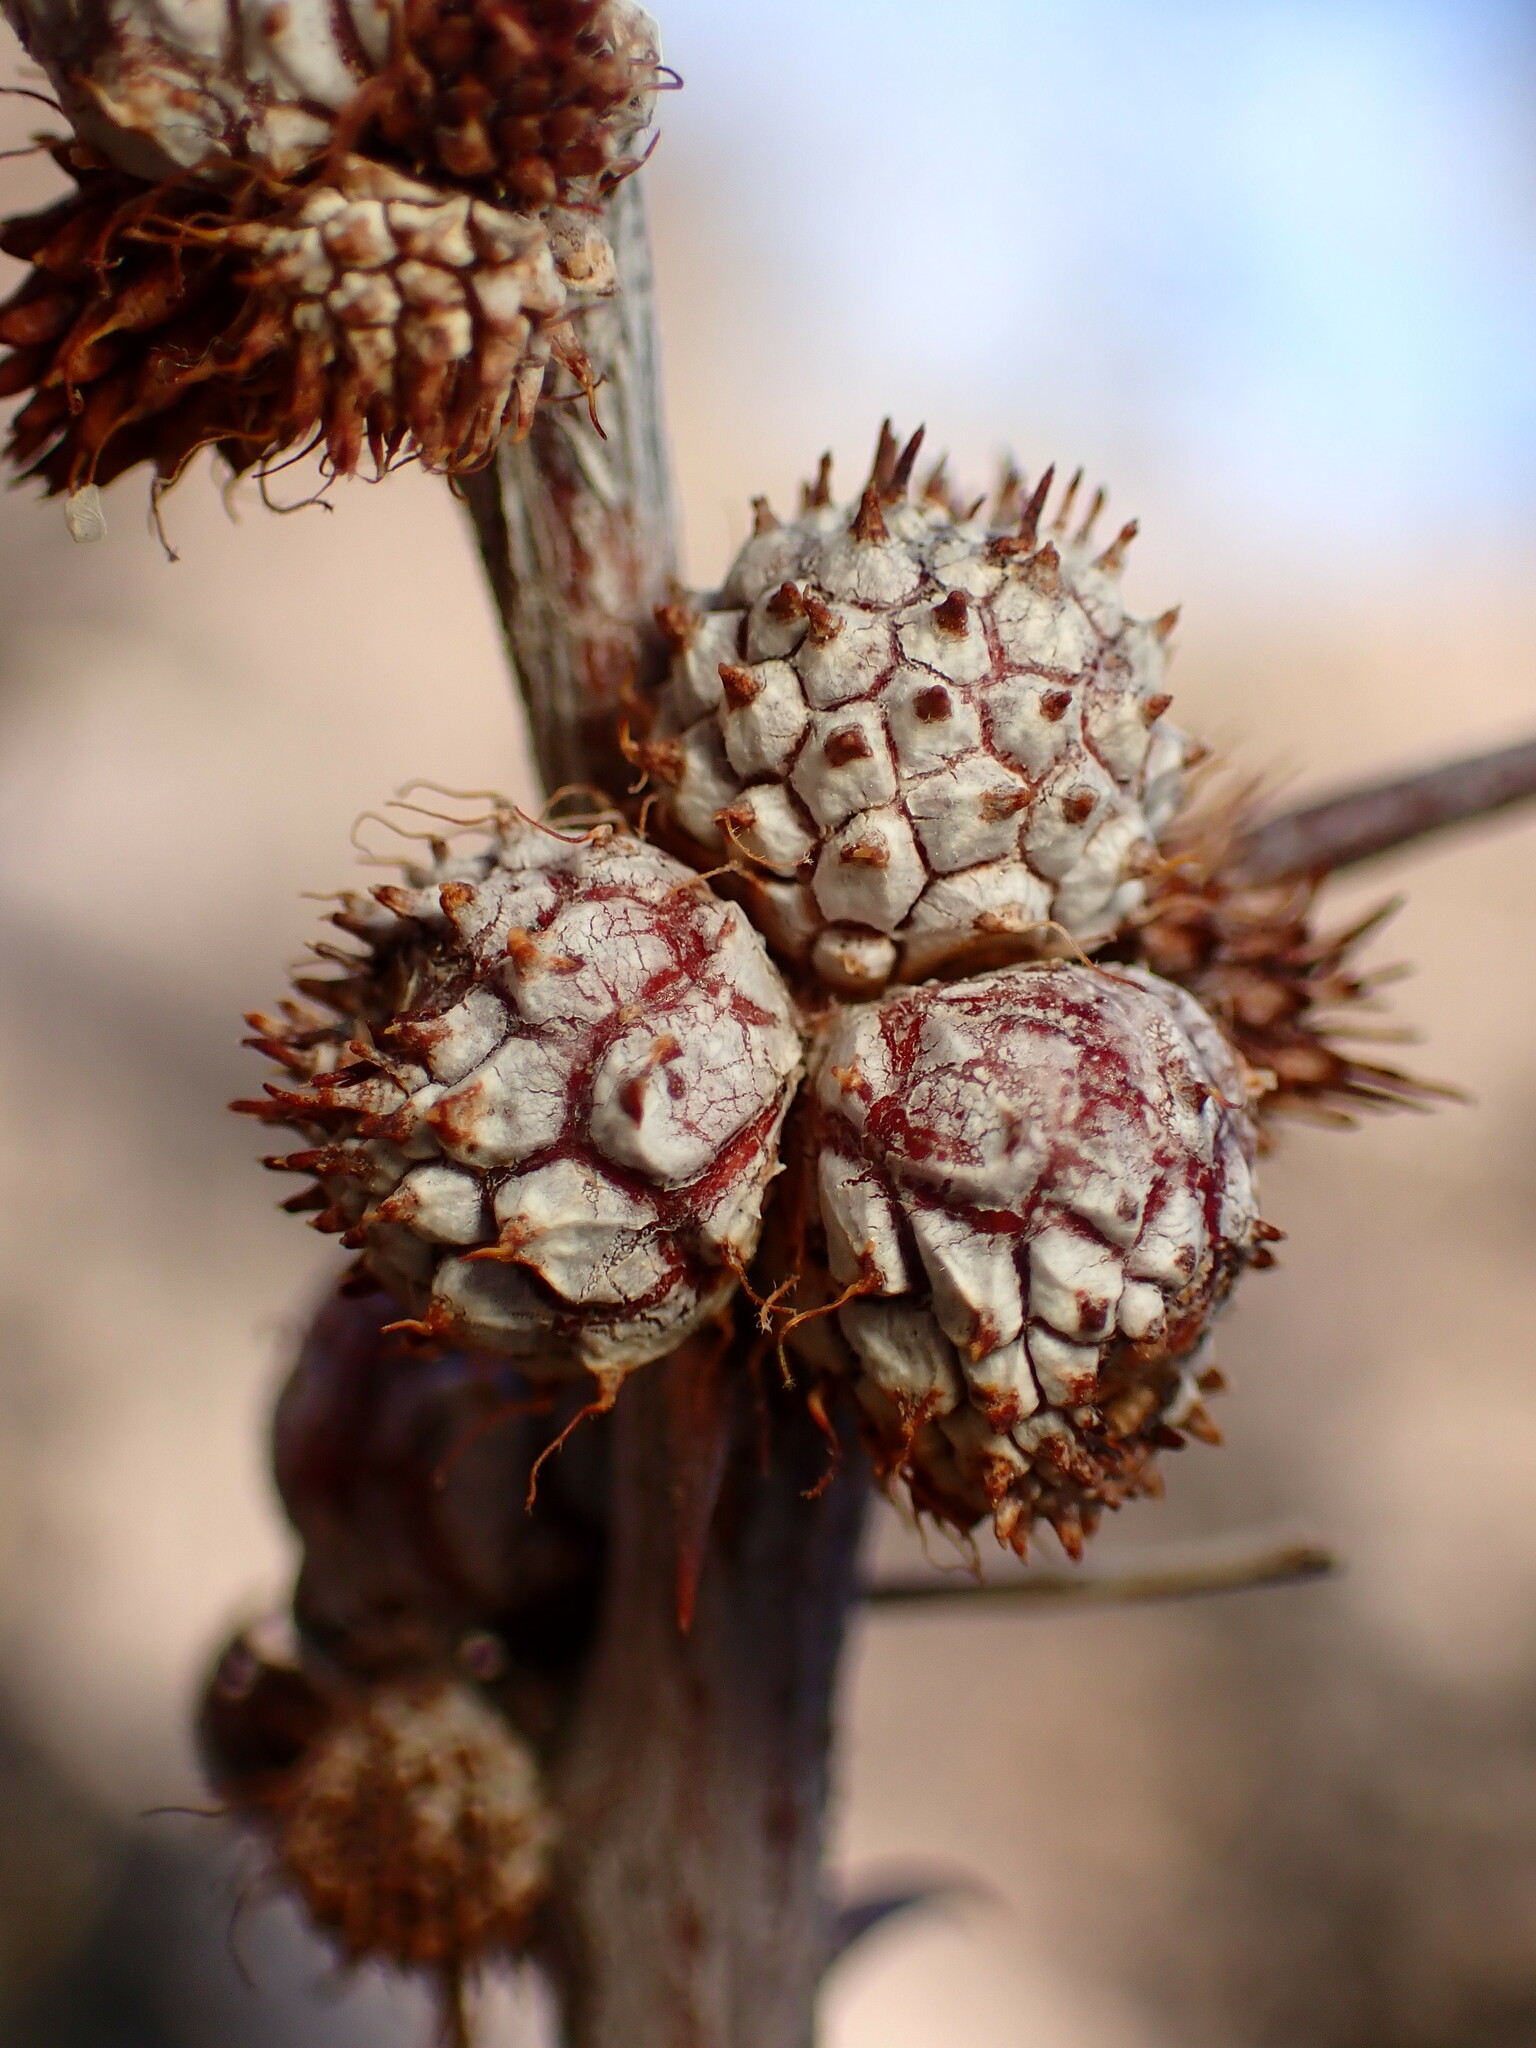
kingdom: Animalia
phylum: Arthropoda
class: Insecta
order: Hymenoptera
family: Tanaostigmatidae
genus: Tanaostigmodes
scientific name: Tanaostigmodes howardii
